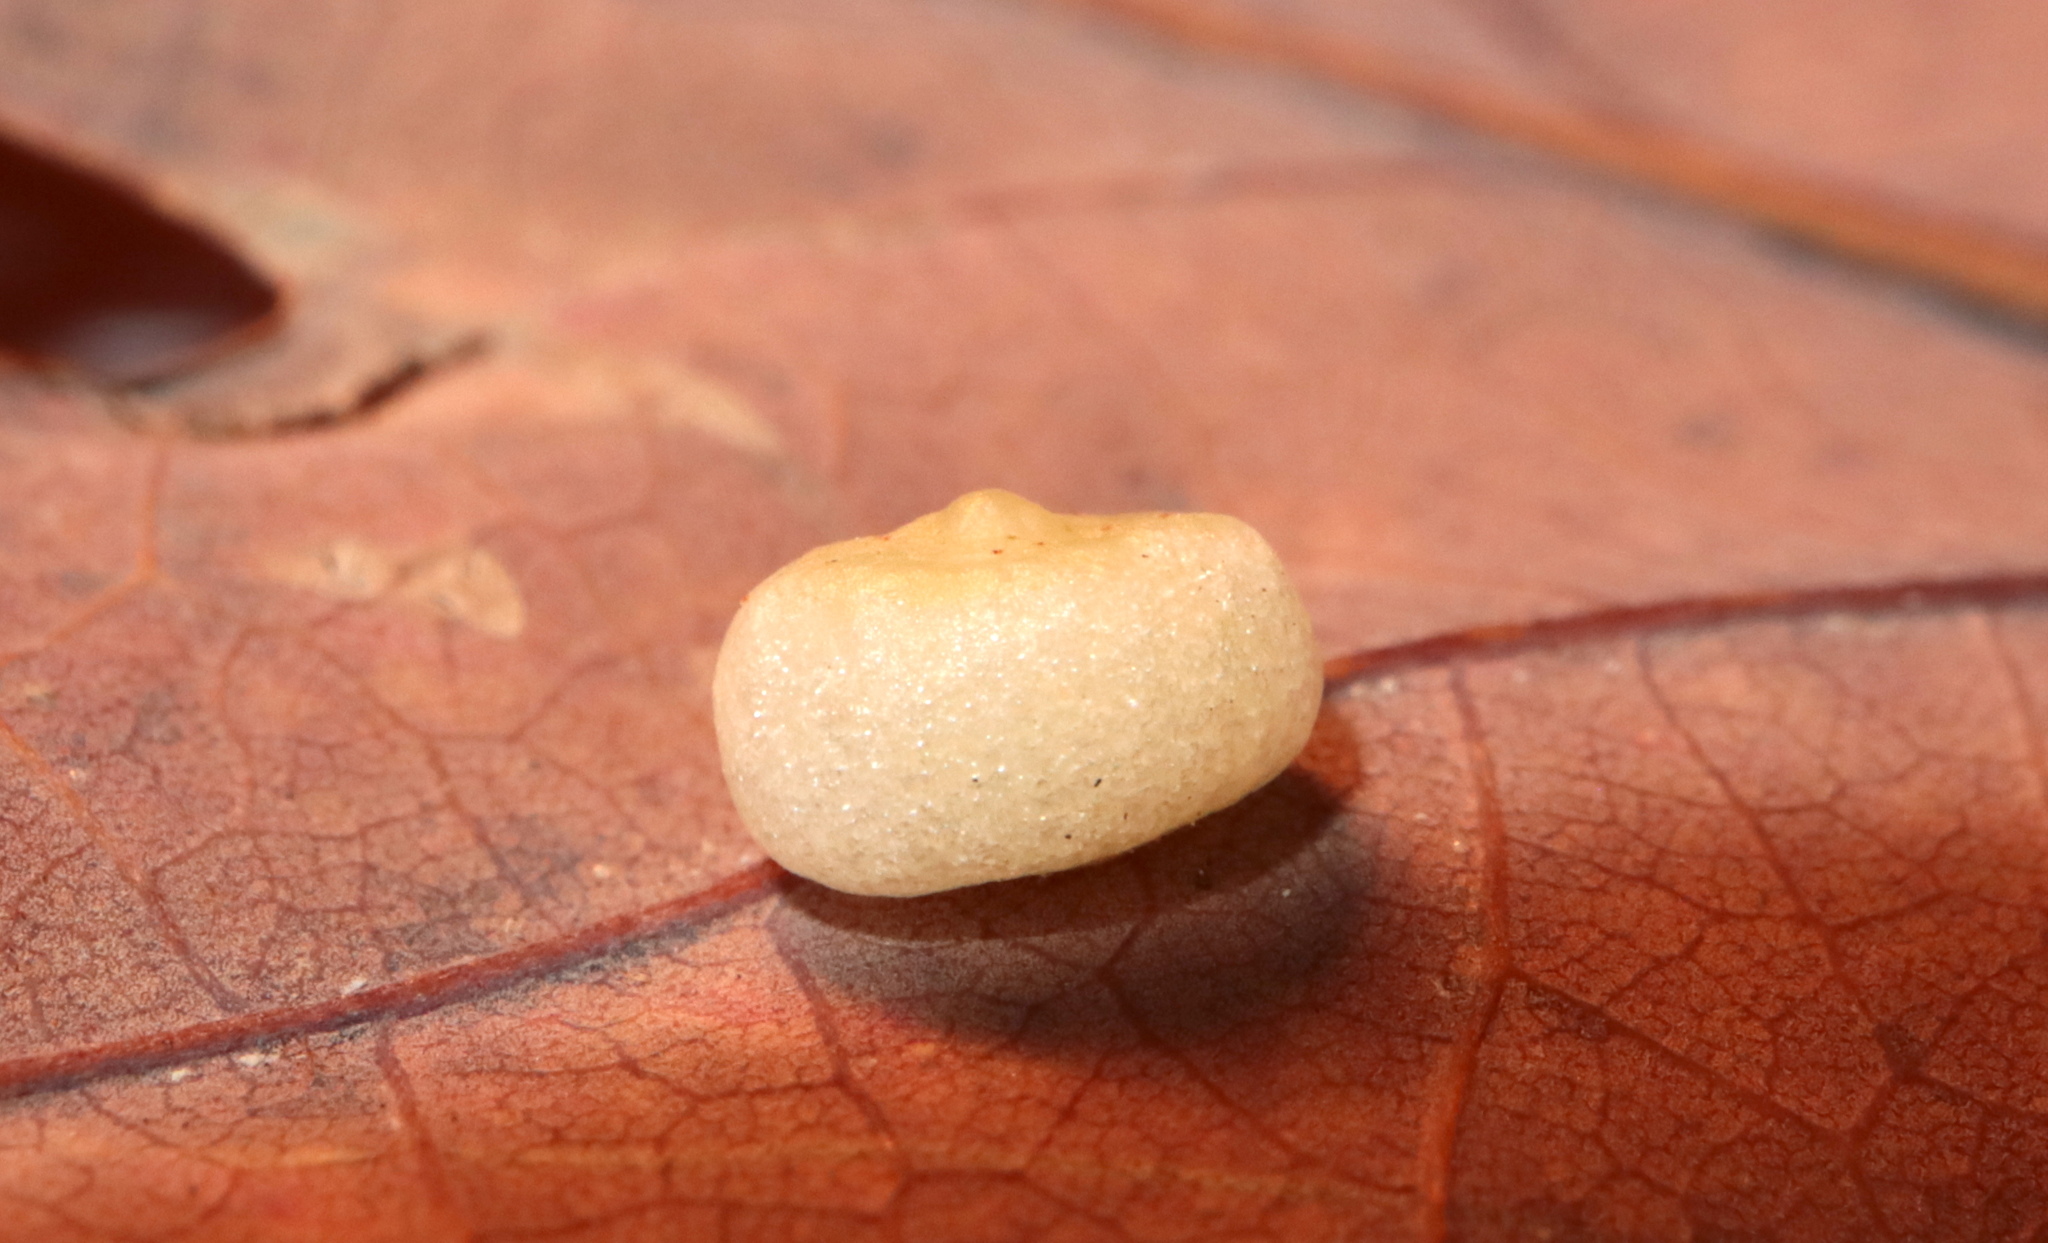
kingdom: Animalia
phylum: Arthropoda
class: Insecta
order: Hymenoptera
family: Cynipidae
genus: Phylloteras
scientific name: Phylloteras
